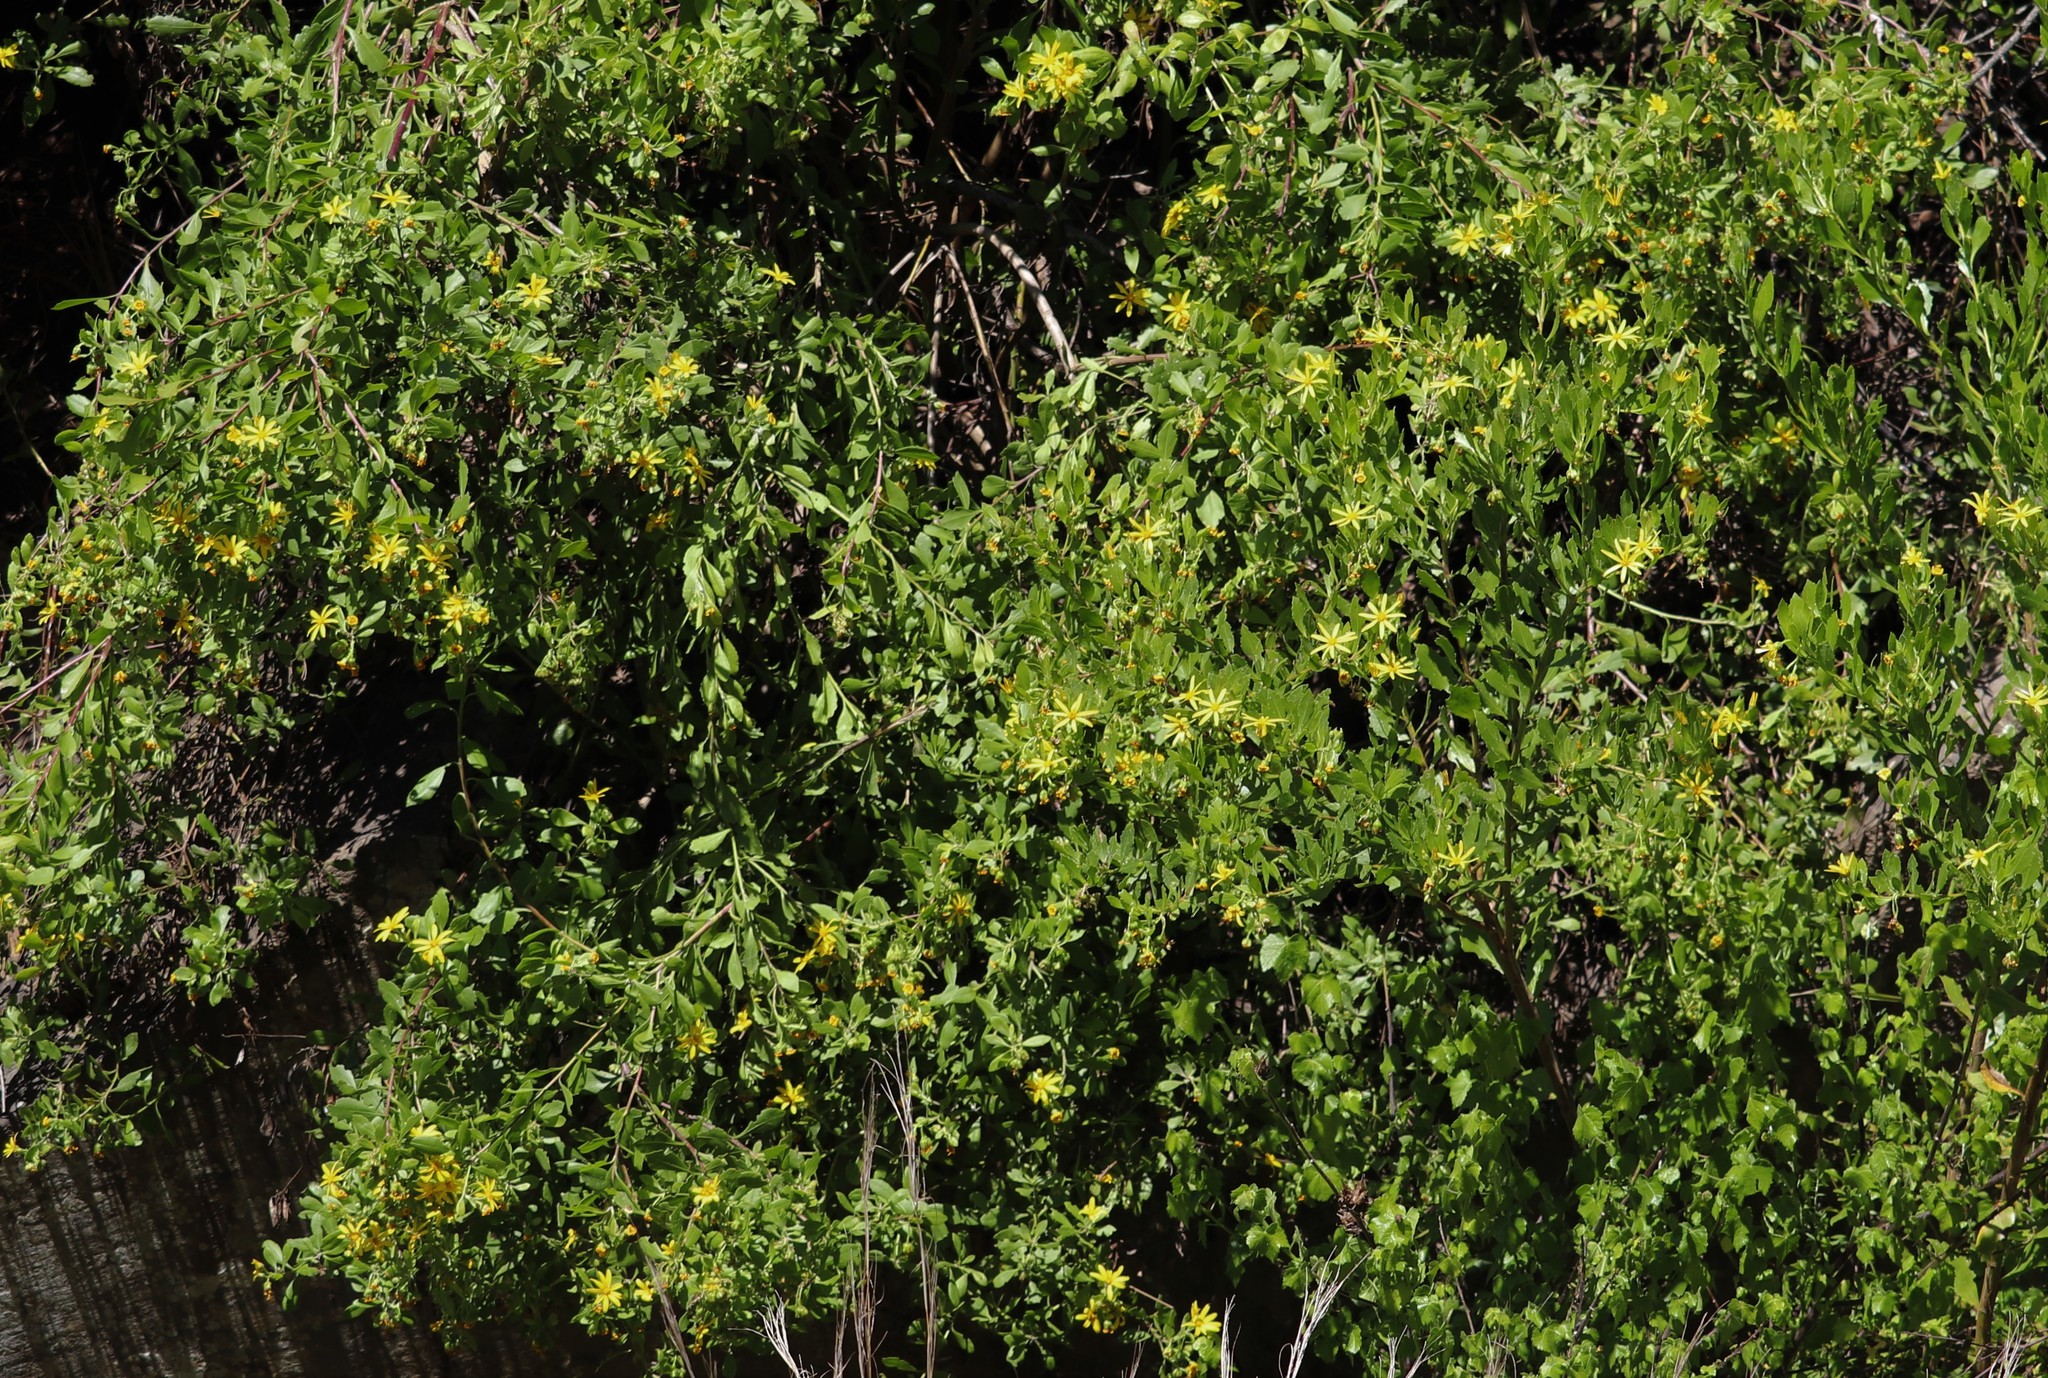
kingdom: Plantae
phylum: Tracheophyta
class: Magnoliopsida
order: Asterales
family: Asteraceae
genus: Osteospermum
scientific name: Osteospermum moniliferum
